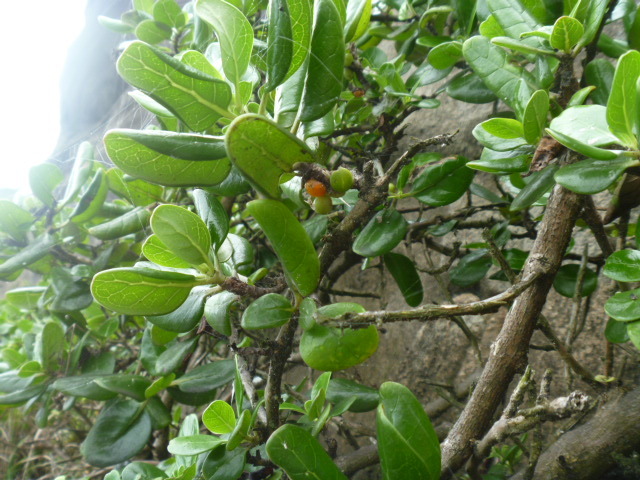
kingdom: Plantae
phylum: Tracheophyta
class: Magnoliopsida
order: Gentianales
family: Rubiaceae
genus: Coprosma
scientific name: Coprosma repens
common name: Tree bedstraw
